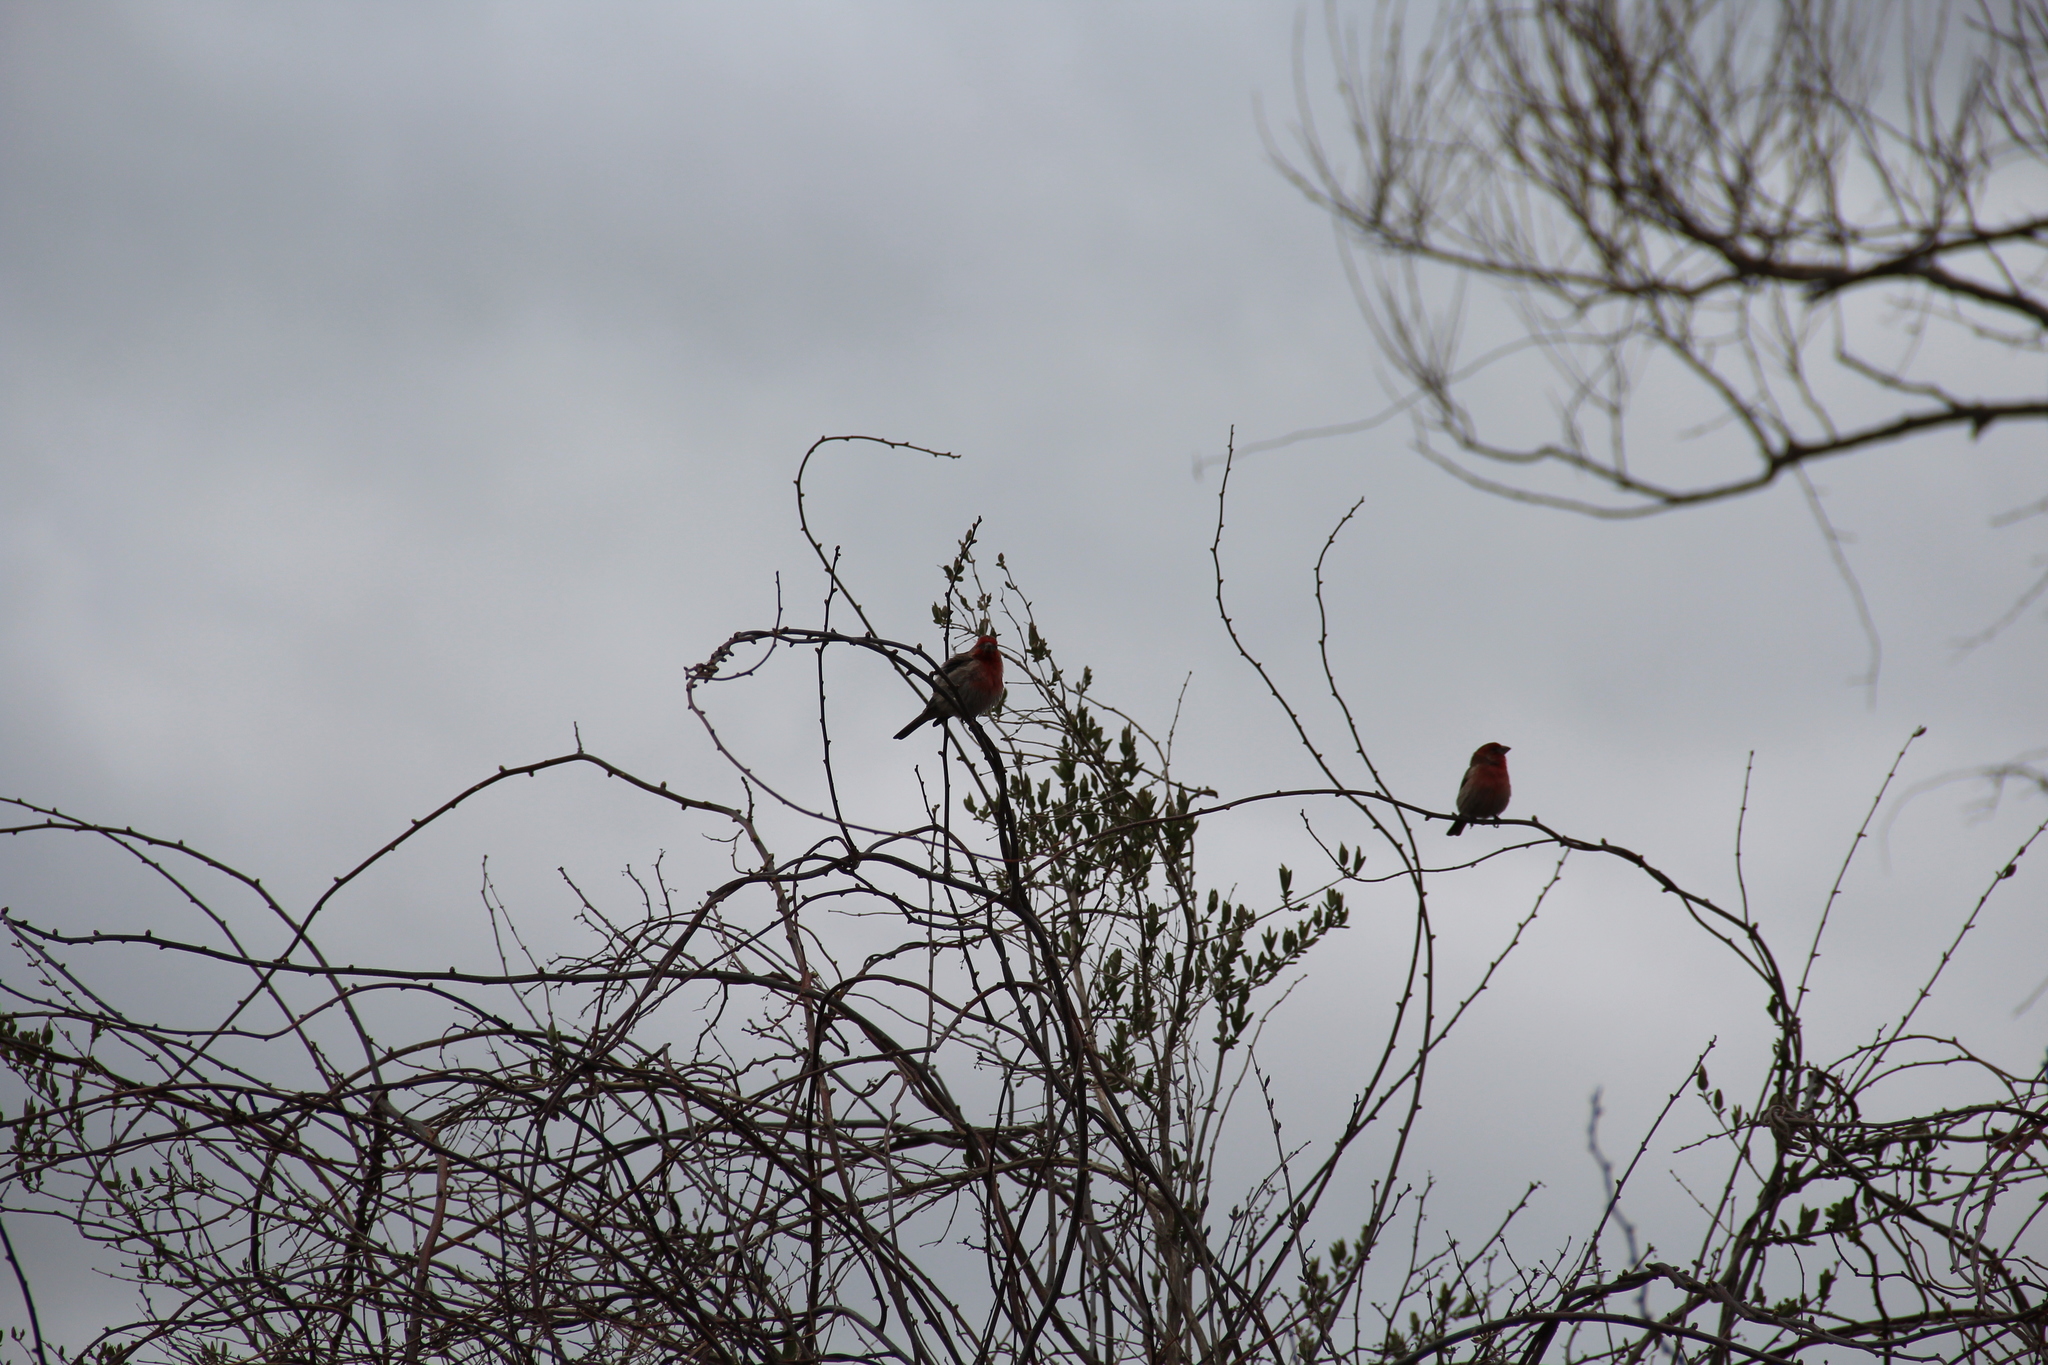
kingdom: Animalia
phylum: Chordata
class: Aves
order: Passeriformes
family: Fringillidae
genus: Haemorhous
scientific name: Haemorhous mexicanus
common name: House finch
